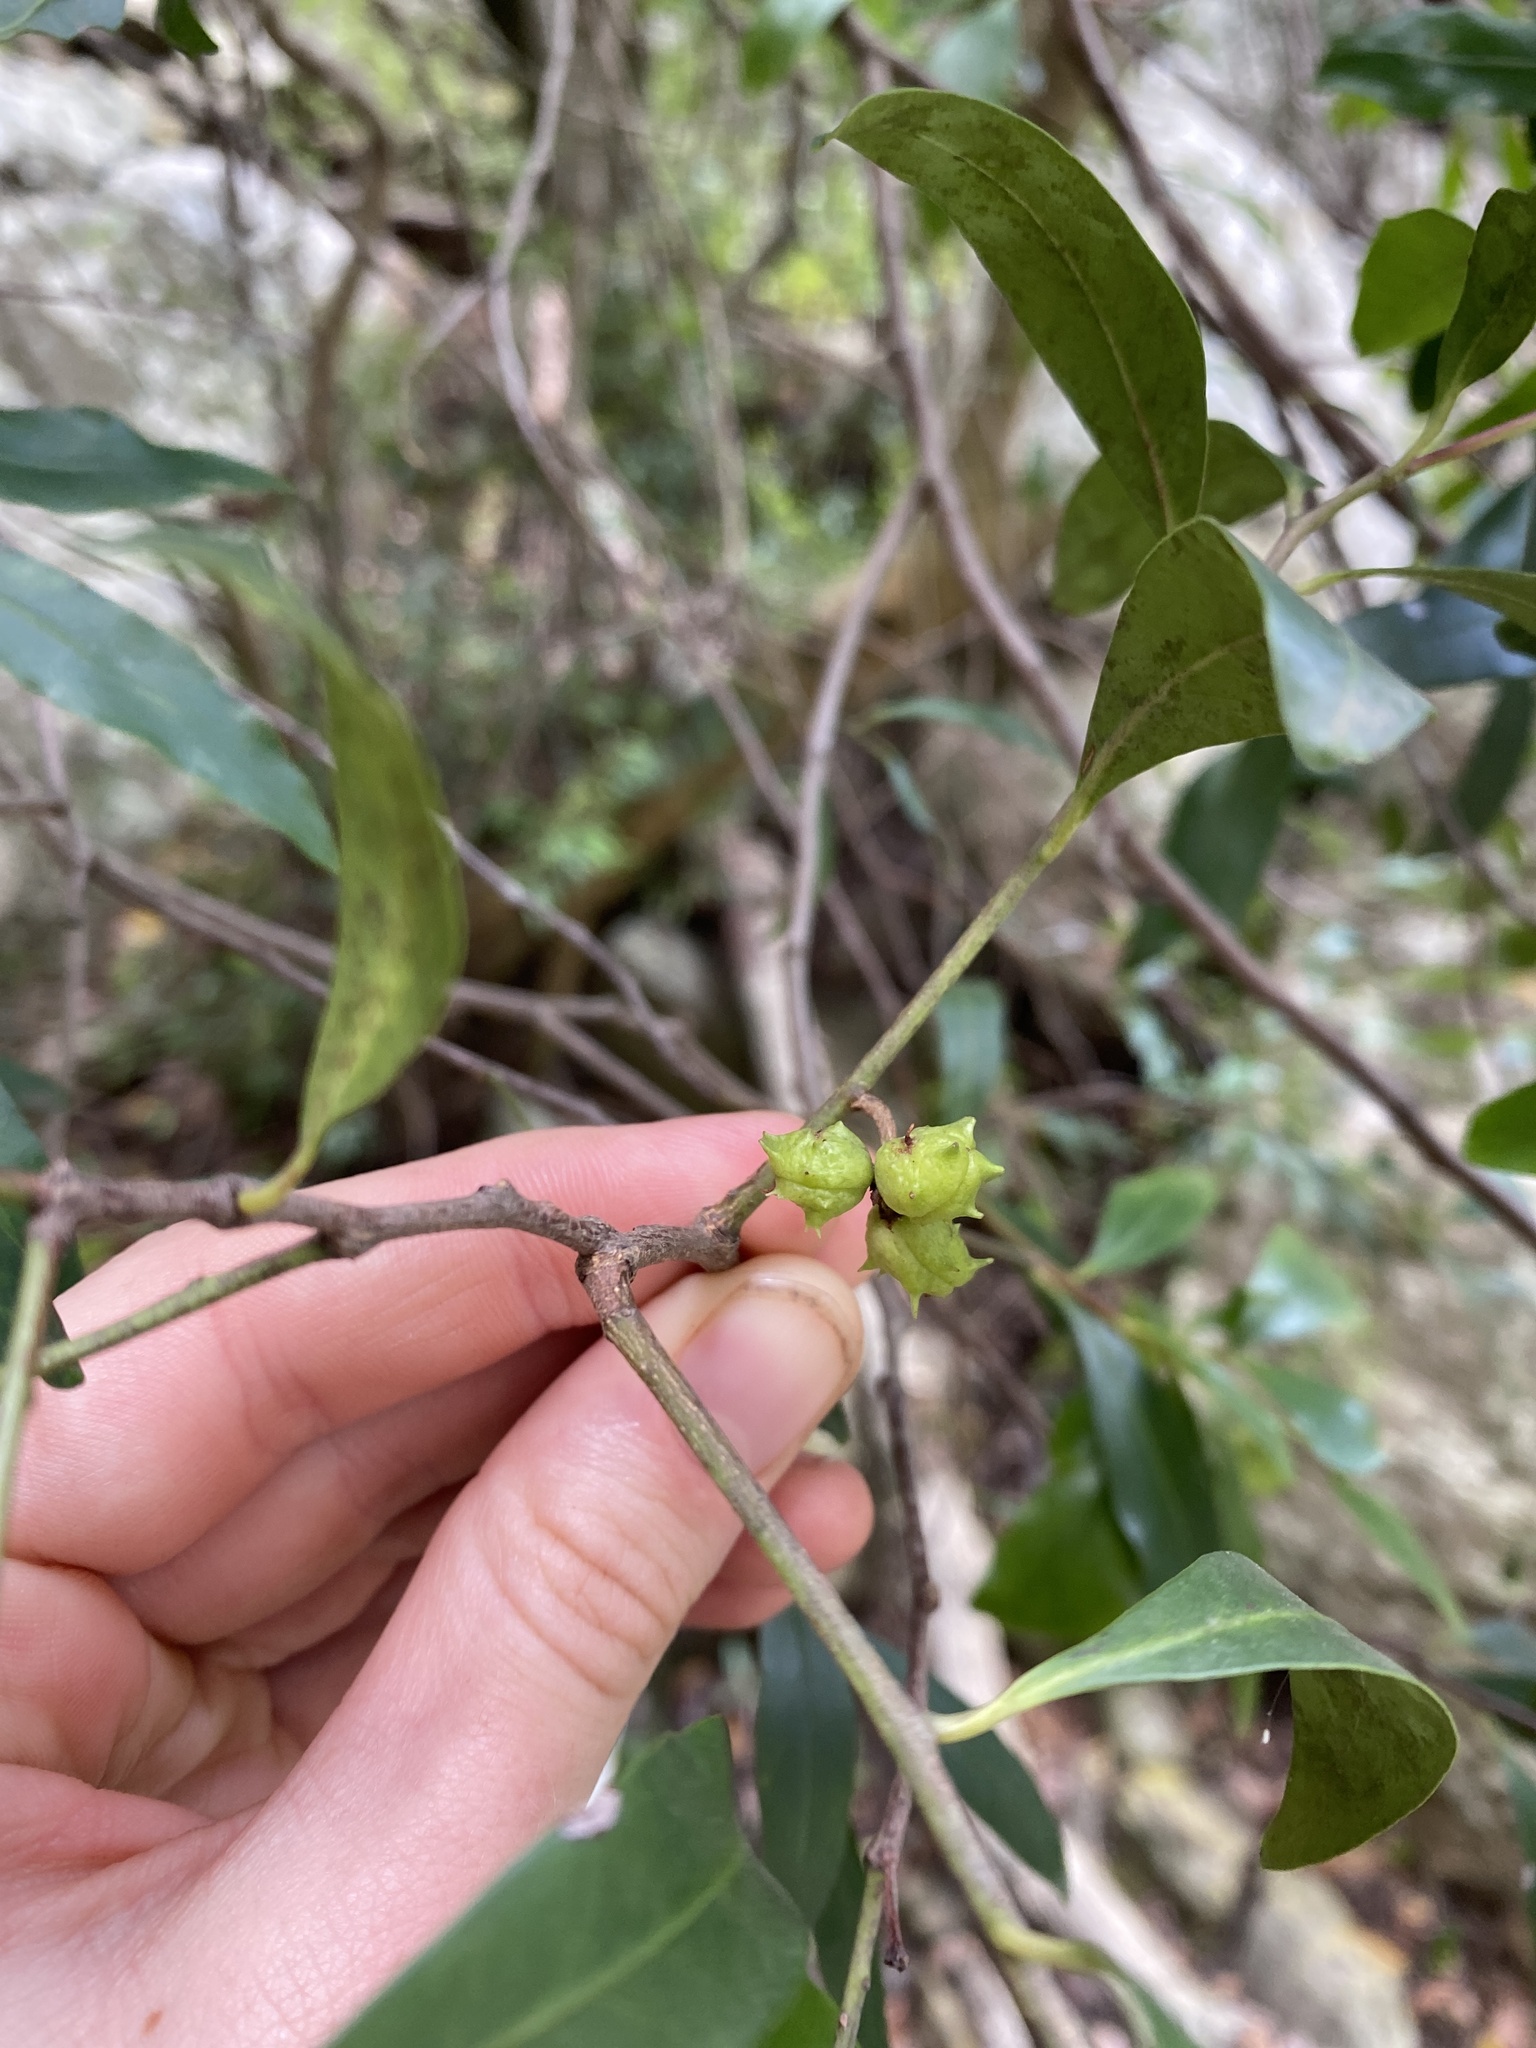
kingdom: Plantae
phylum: Tracheophyta
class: Magnoliopsida
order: Celastrales
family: Celastraceae
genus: Pterocelastrus
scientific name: Pterocelastrus echinatus
